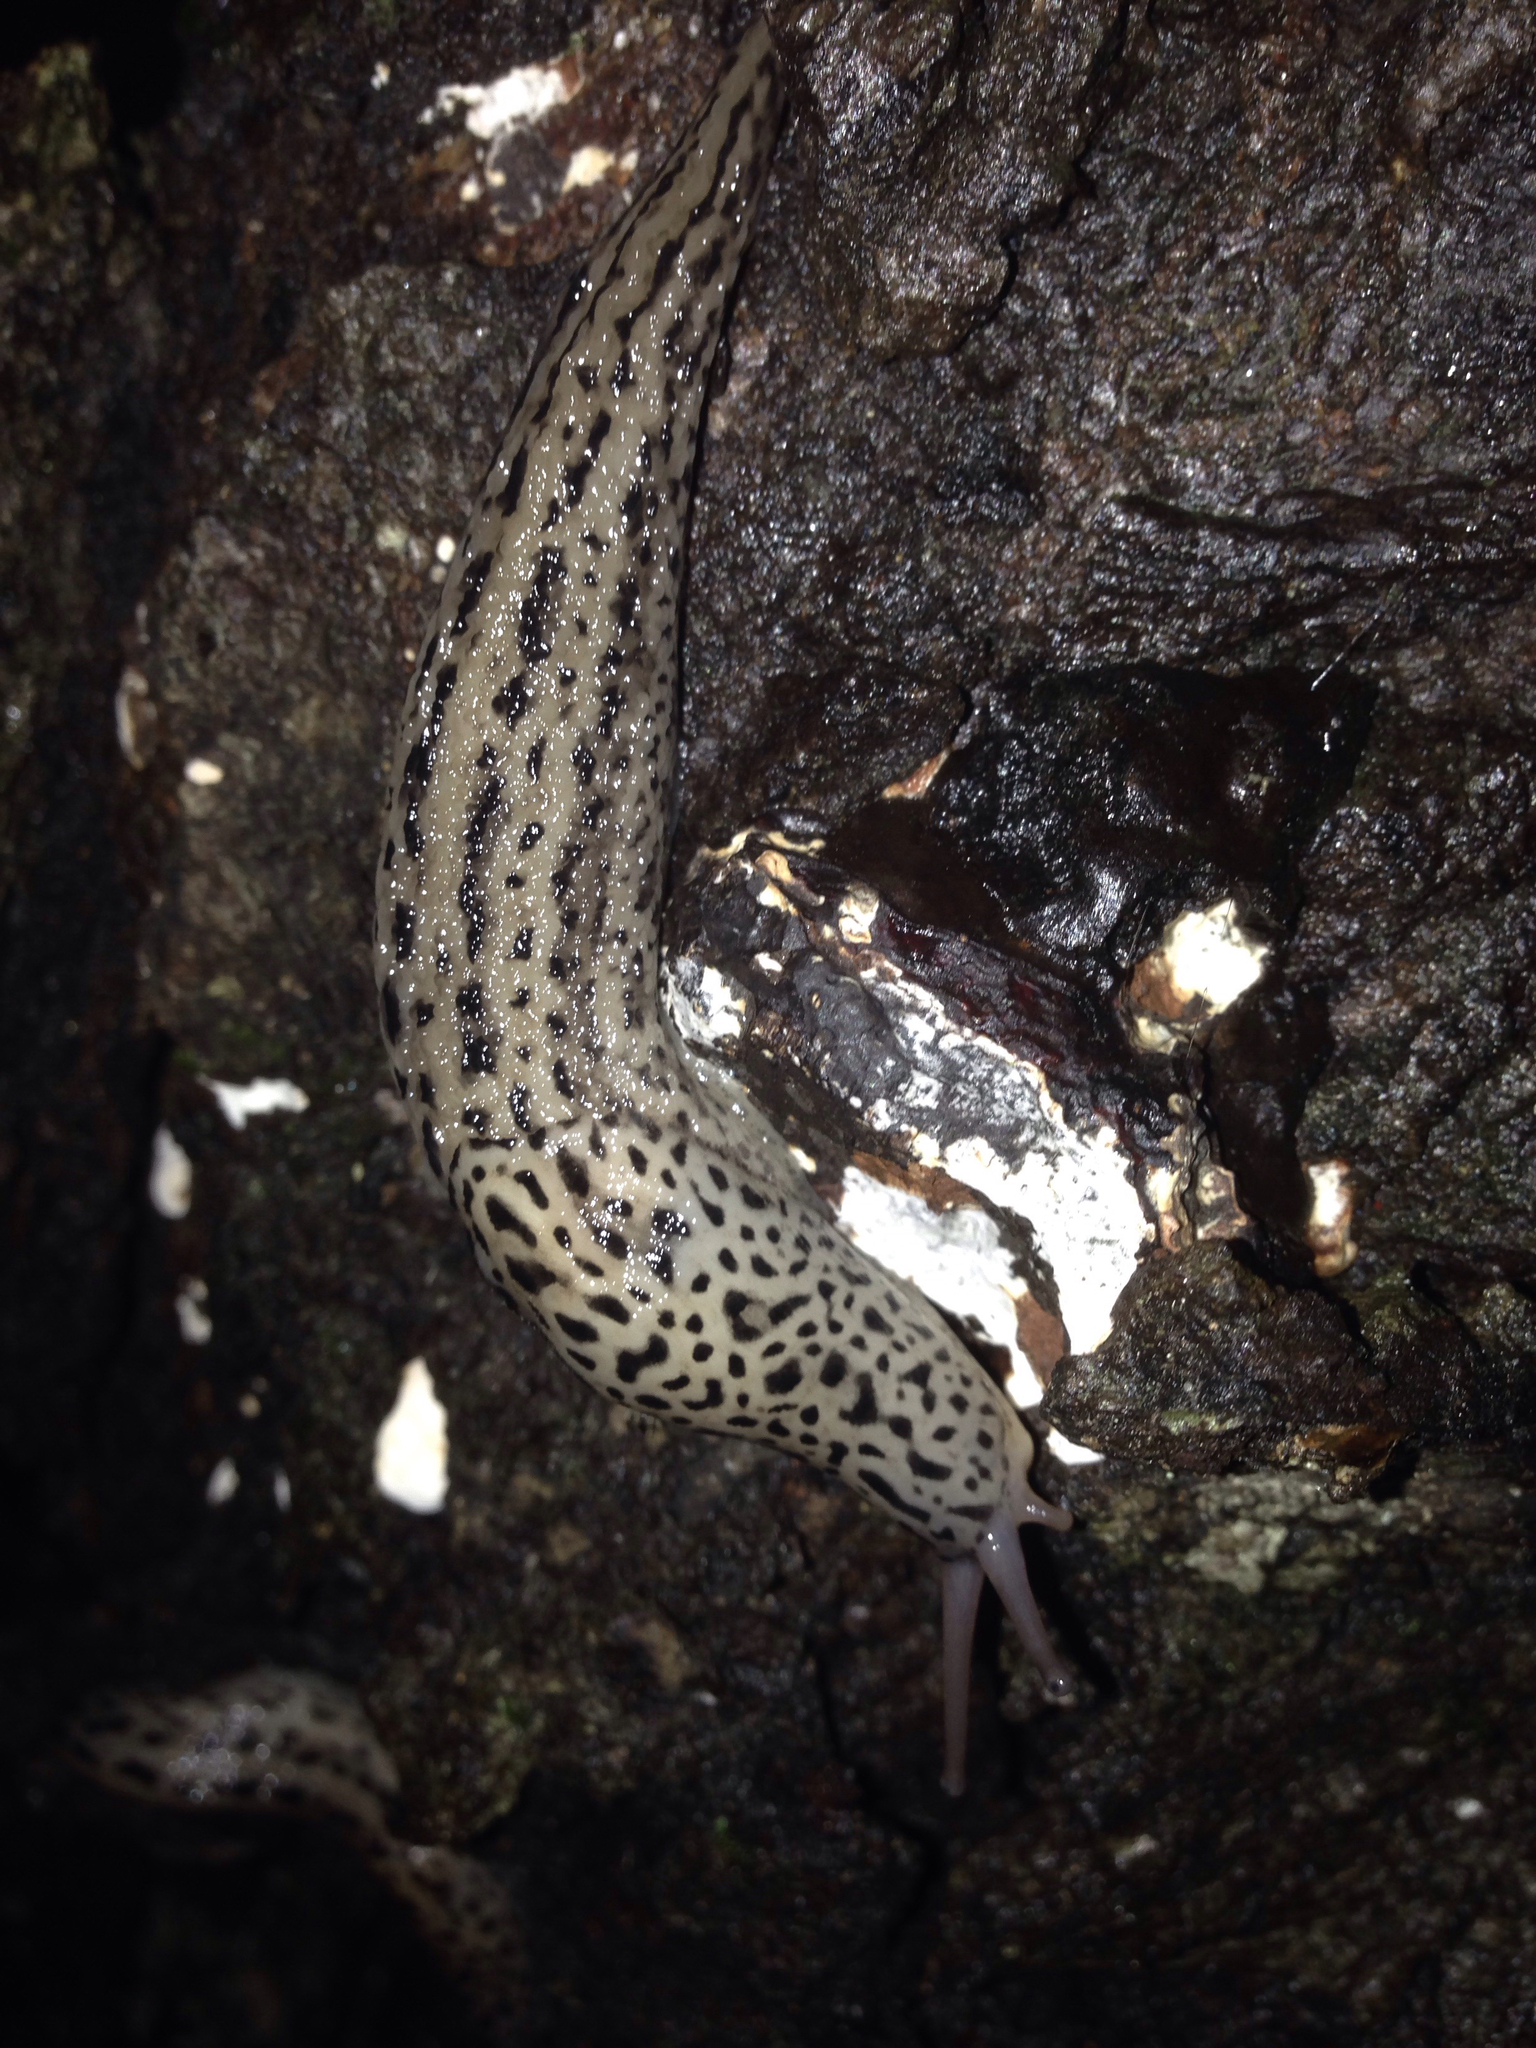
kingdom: Animalia
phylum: Mollusca
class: Gastropoda
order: Stylommatophora
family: Limacidae
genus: Limax
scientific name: Limax maximus
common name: Great grey slug
